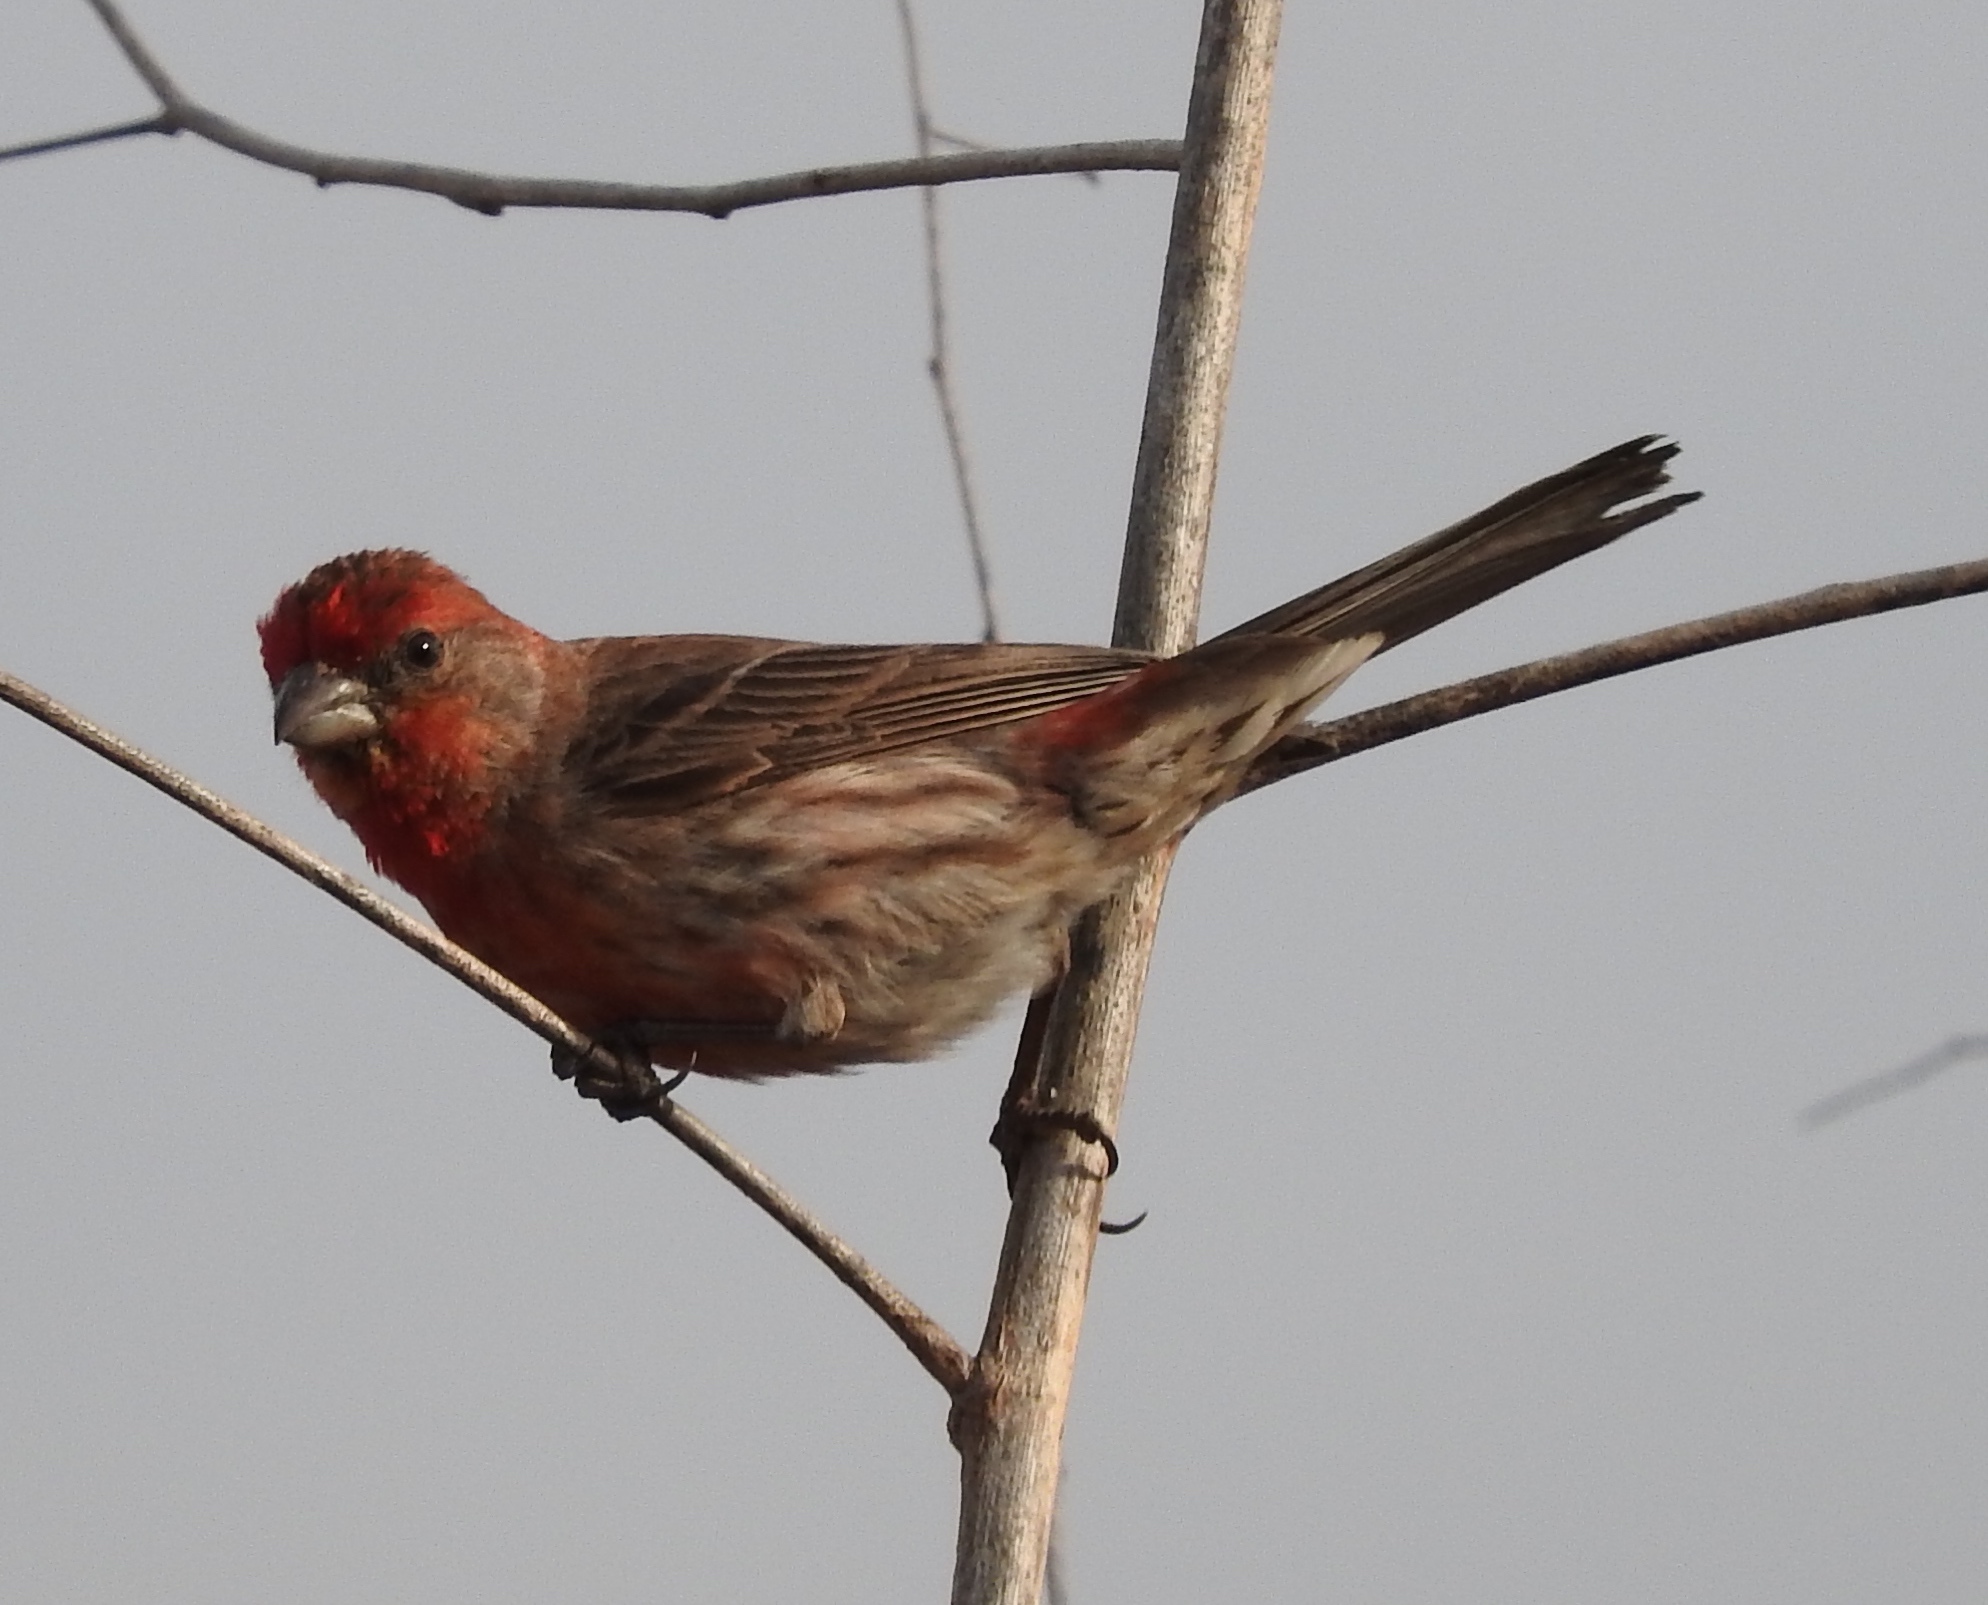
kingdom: Animalia
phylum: Chordata
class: Aves
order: Passeriformes
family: Fringillidae
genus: Haemorhous
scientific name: Haemorhous mexicanus
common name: House finch
